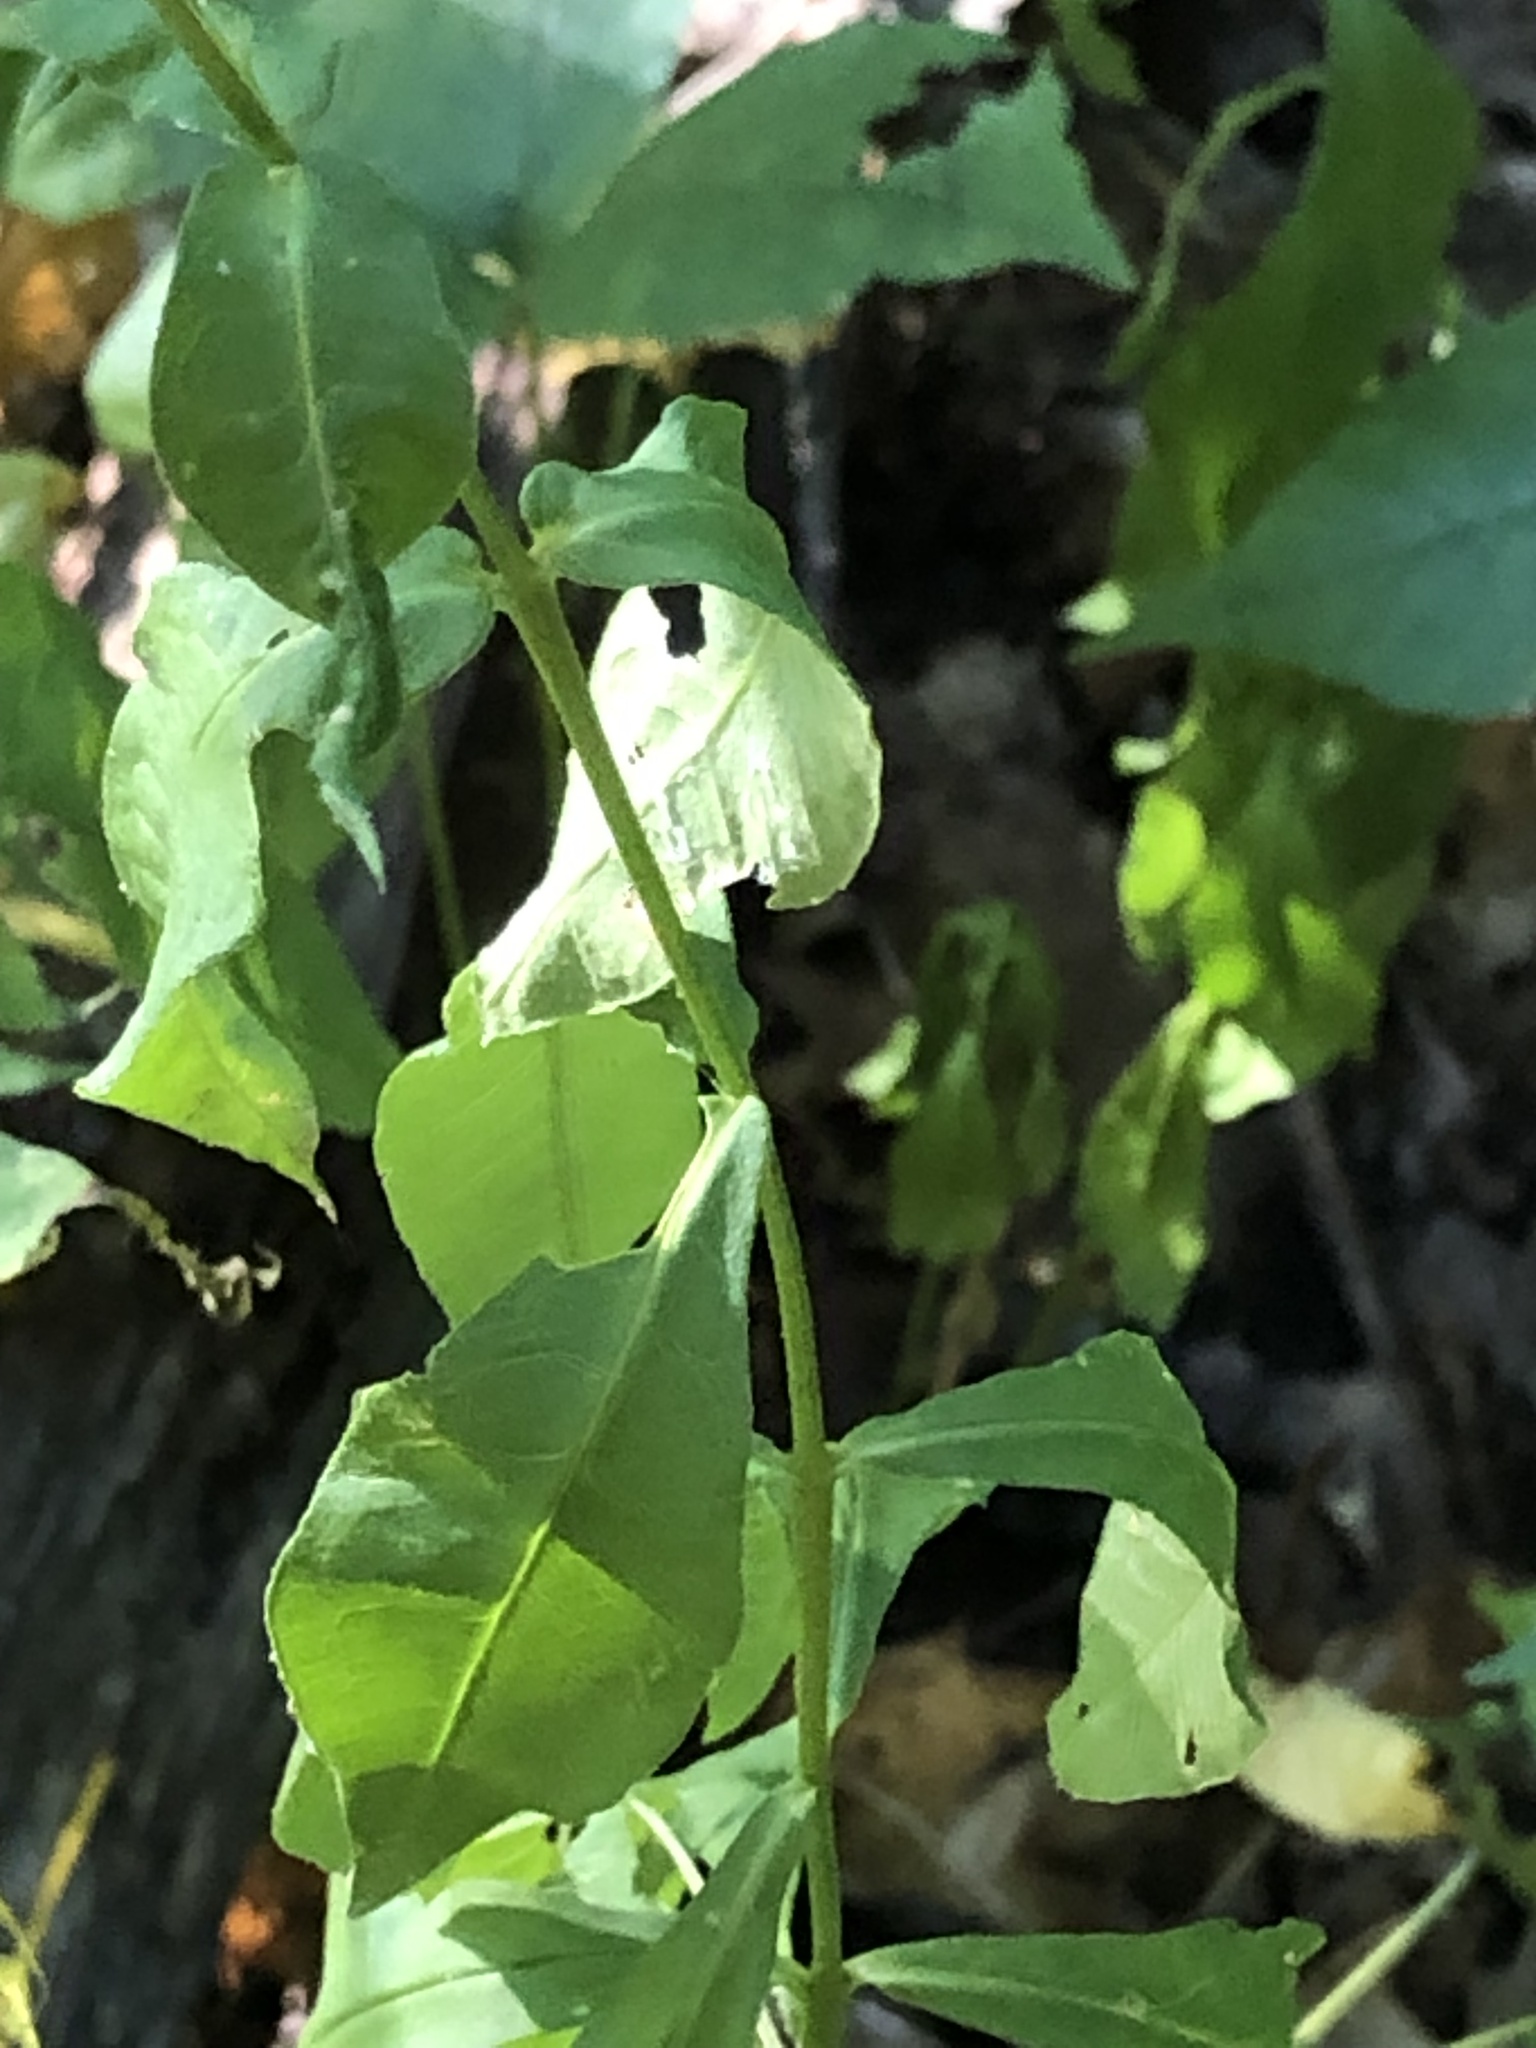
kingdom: Plantae
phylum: Tracheophyta
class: Magnoliopsida
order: Ericales
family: Polemoniaceae
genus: Phlox
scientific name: Phlox paniculata
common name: Fall phlox
